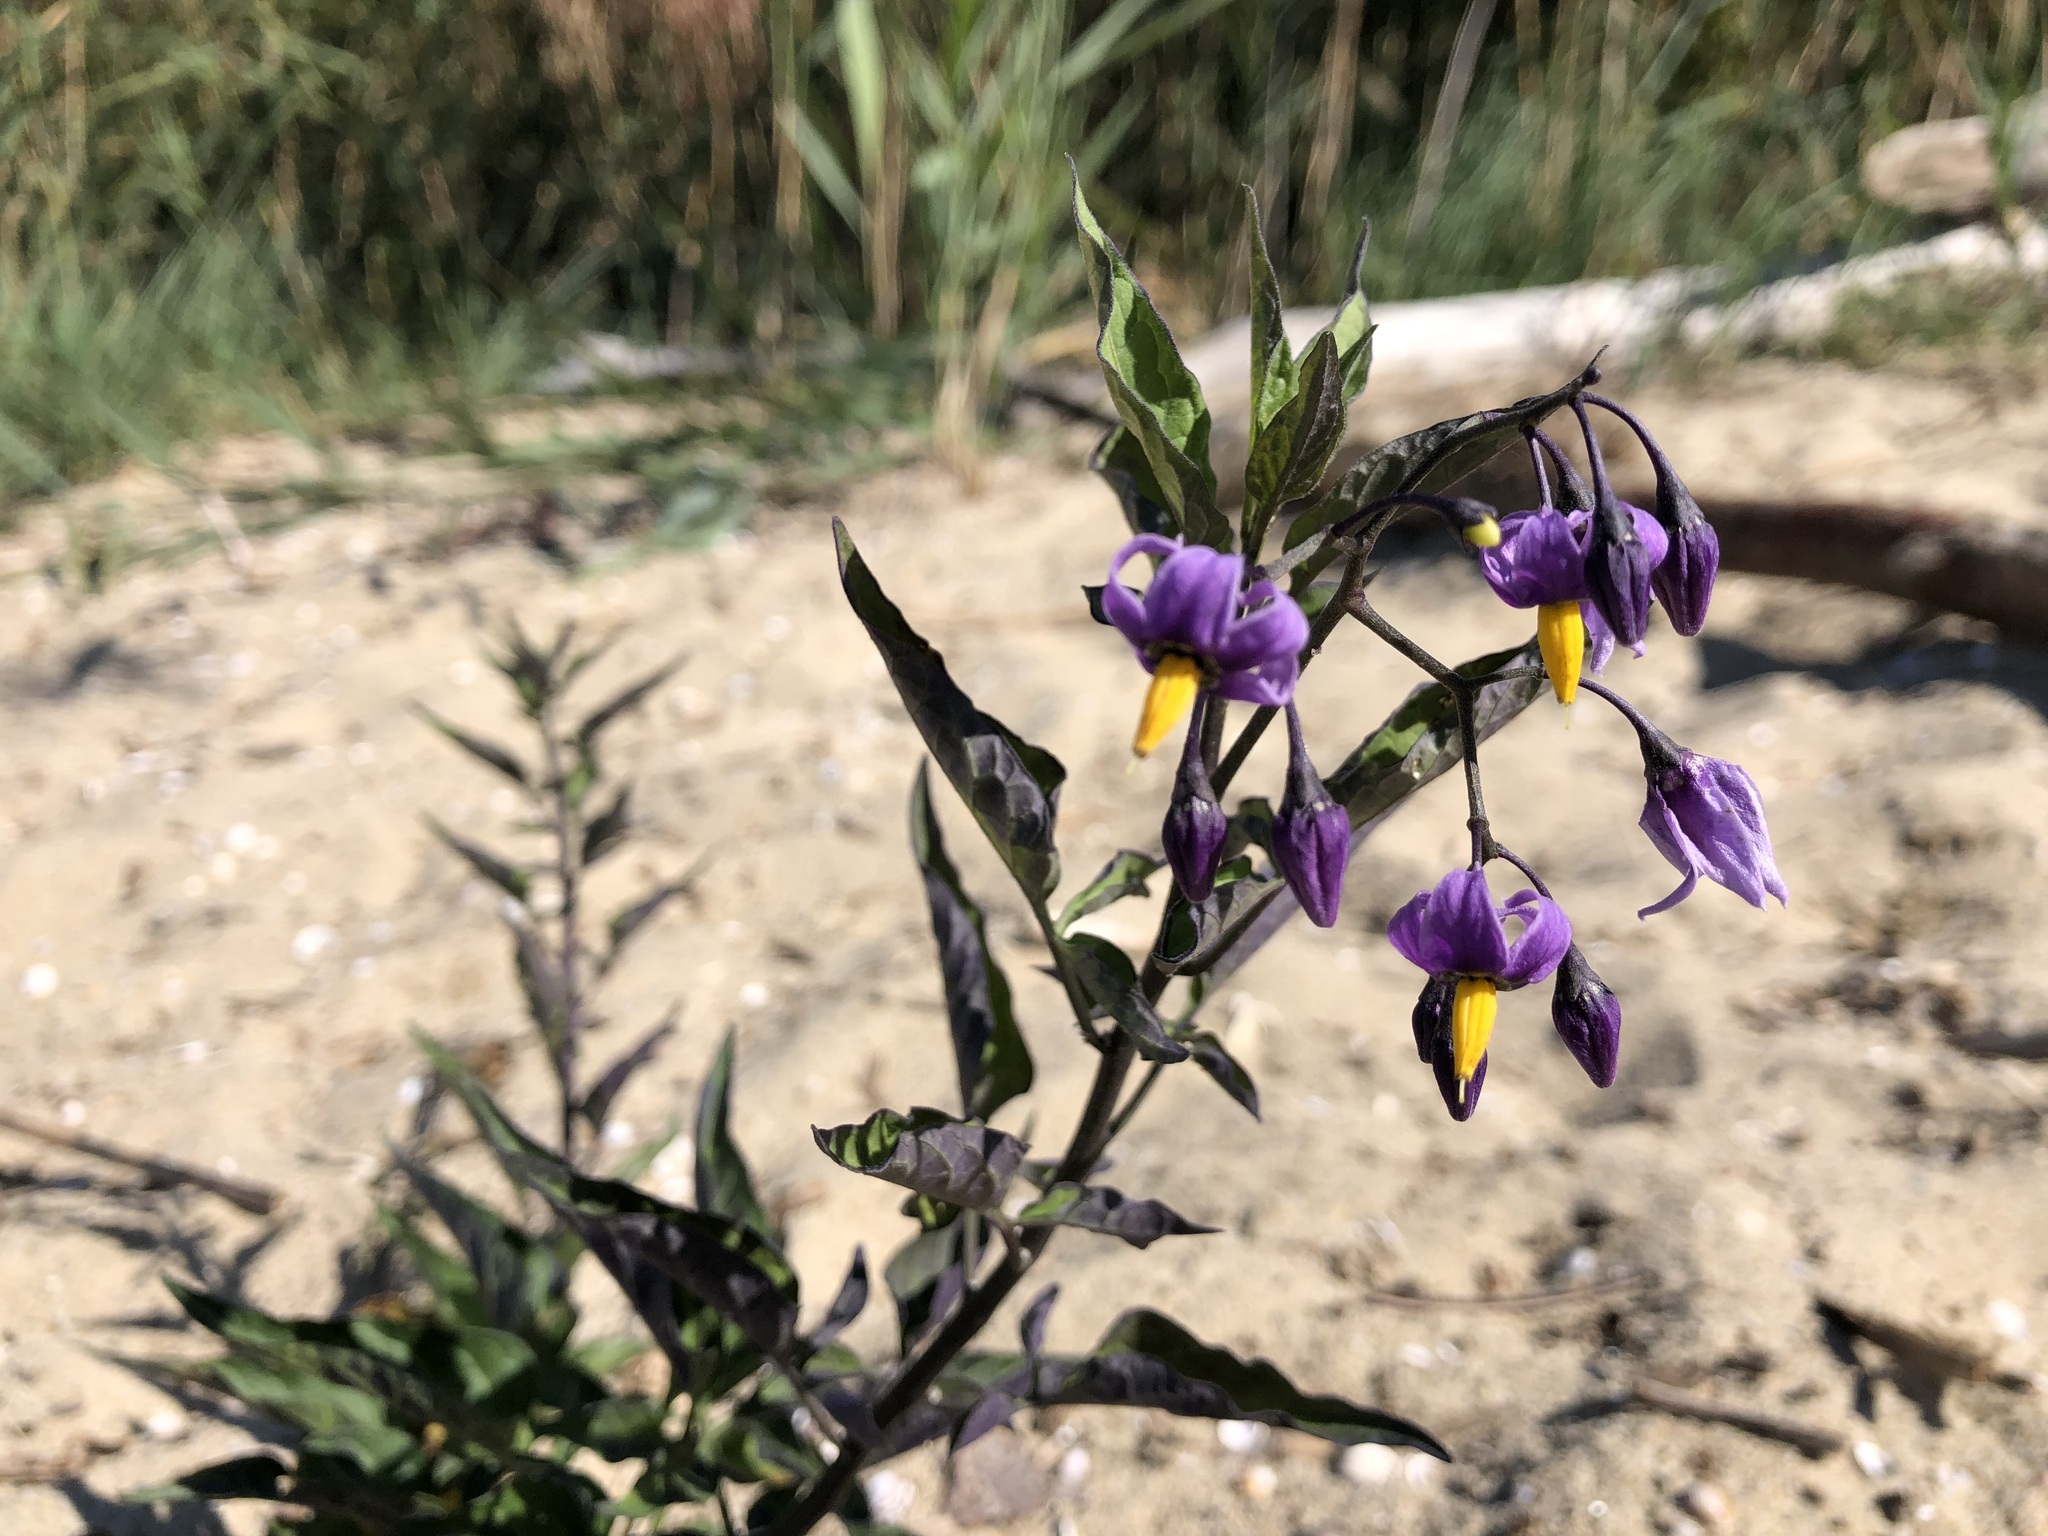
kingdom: Plantae
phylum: Tracheophyta
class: Magnoliopsida
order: Solanales
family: Solanaceae
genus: Solanum
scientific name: Solanum dulcamara
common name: Climbing nightshade
